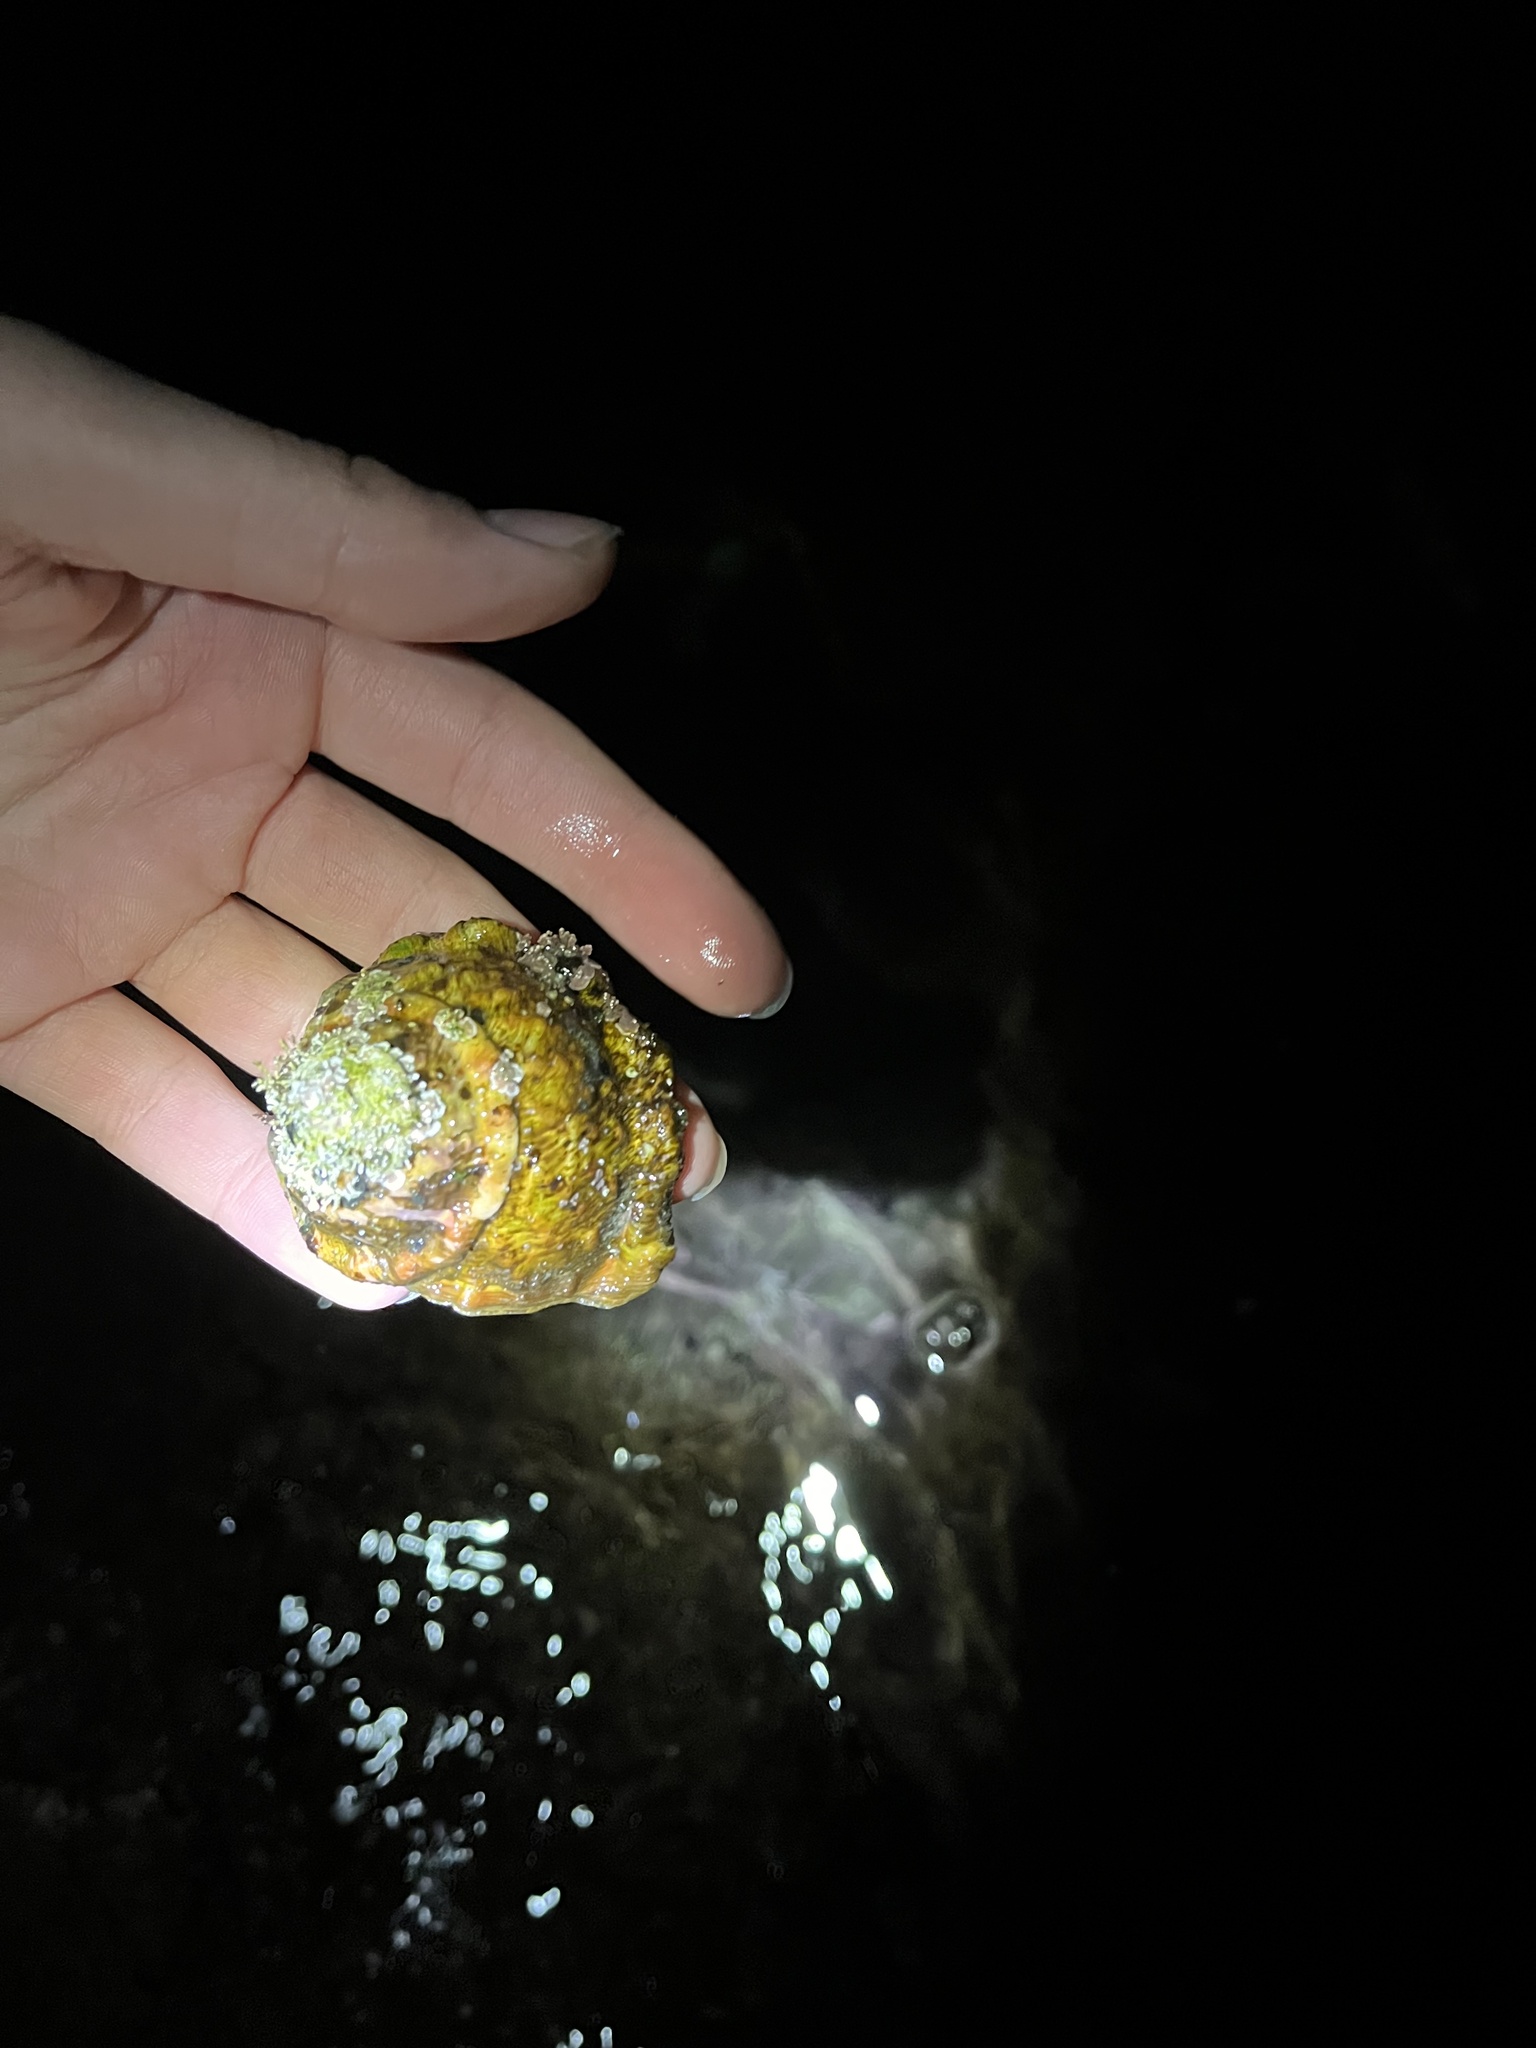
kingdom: Animalia
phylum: Mollusca
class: Gastropoda
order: Trochida
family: Turbinidae
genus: Megastraea
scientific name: Megastraea undosa
